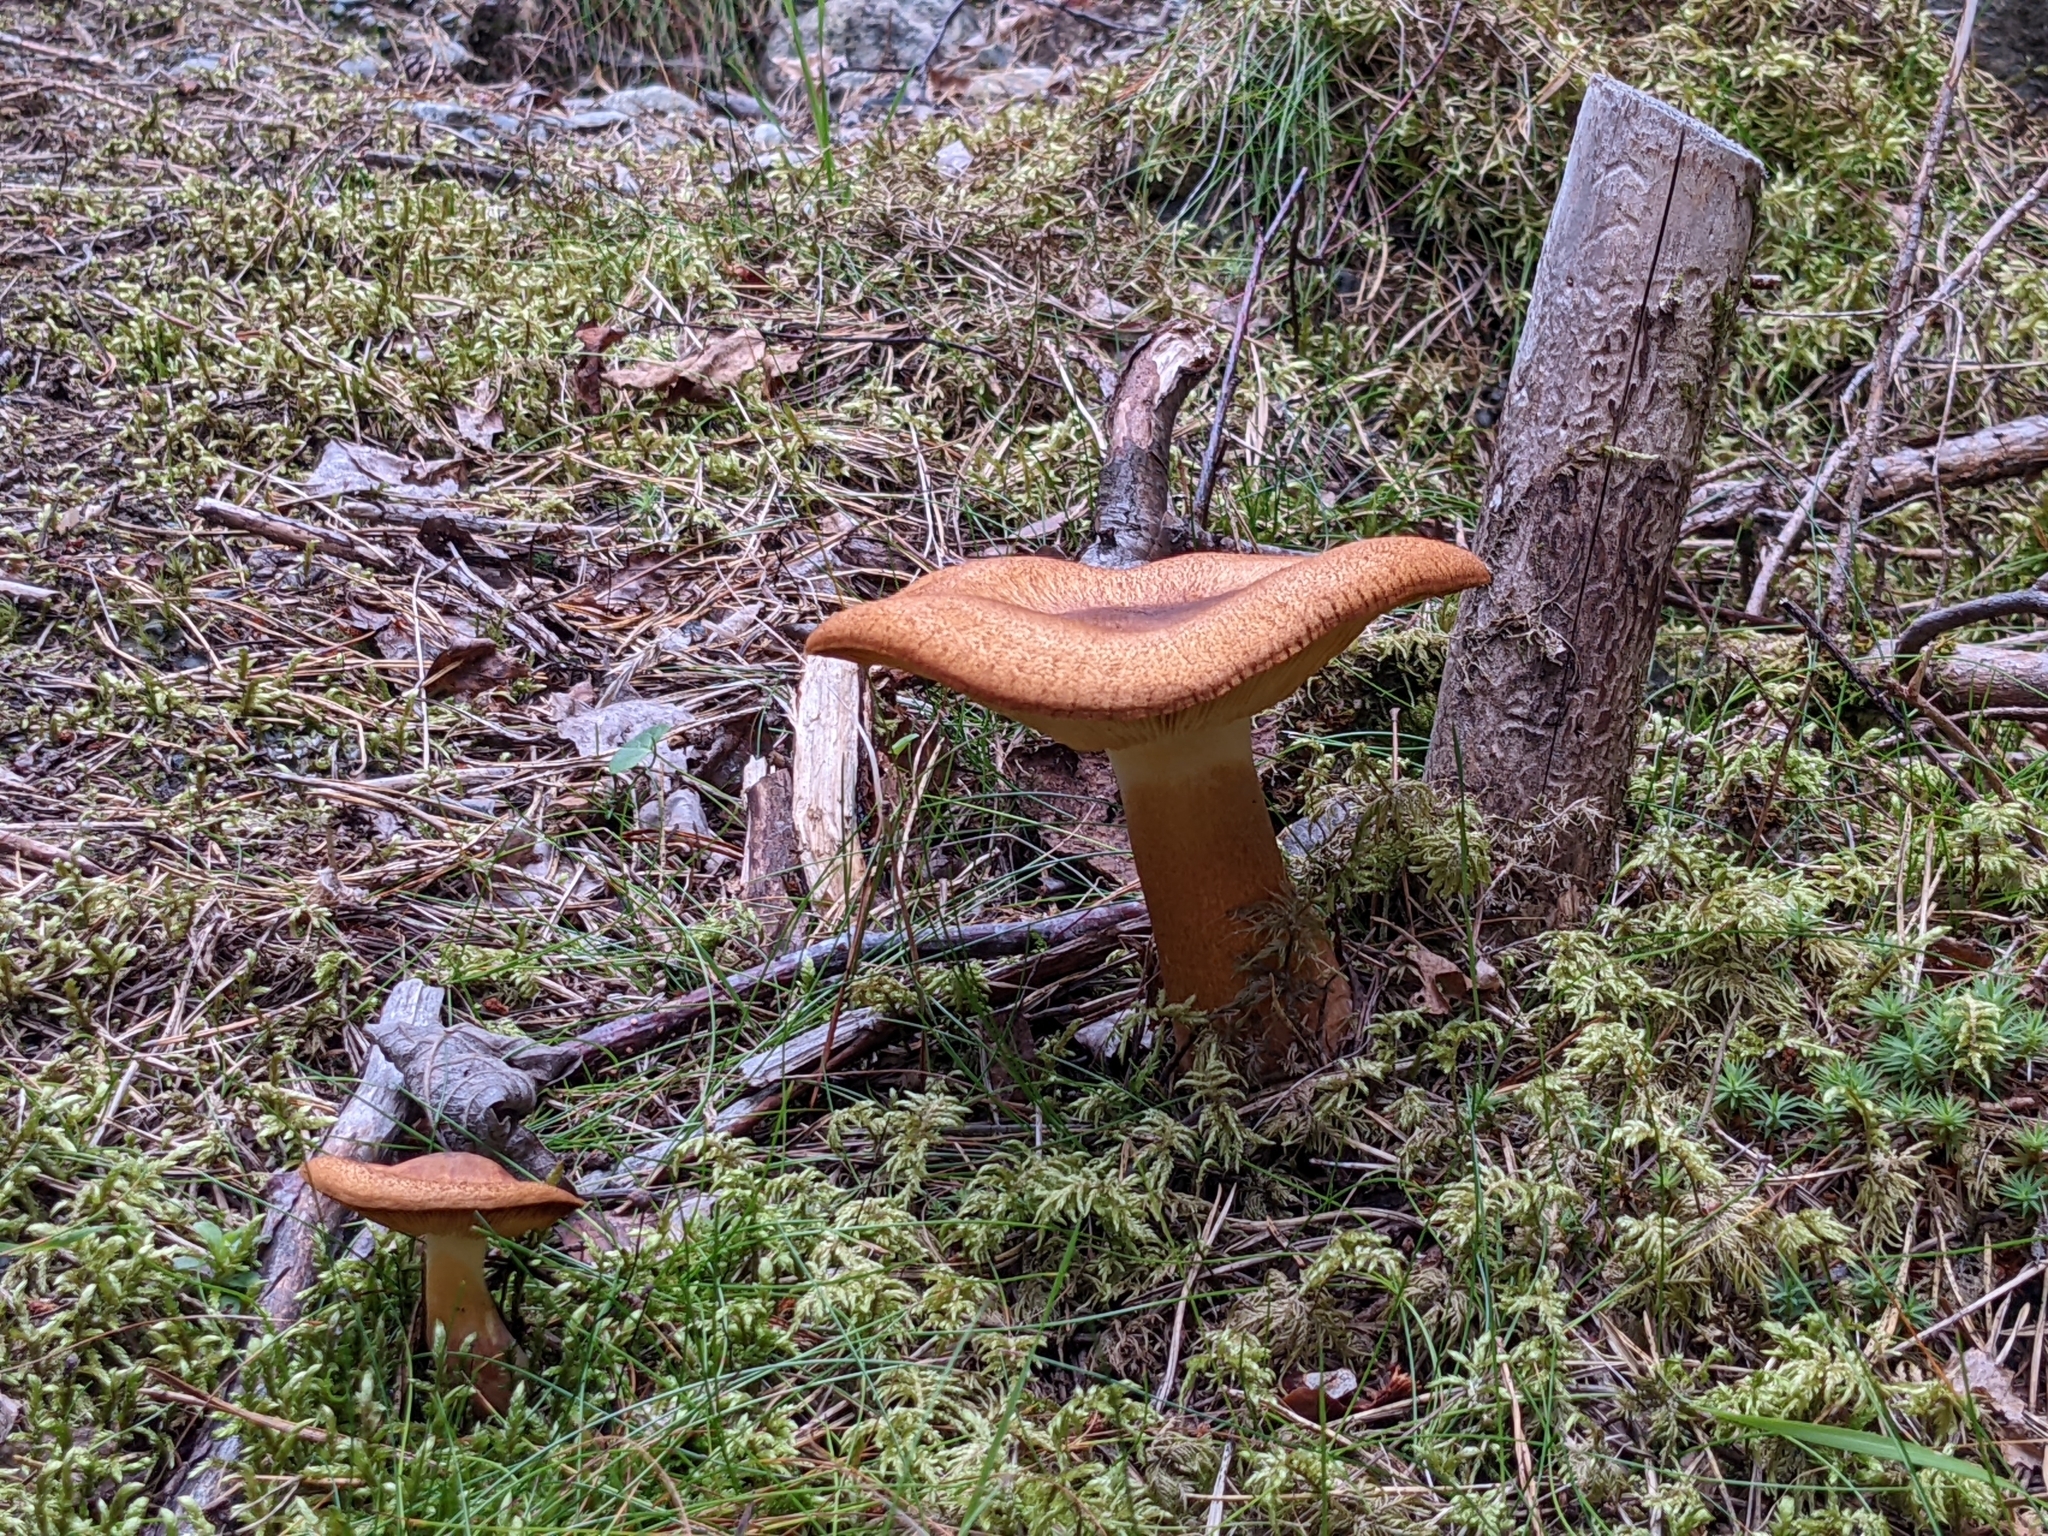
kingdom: Fungi
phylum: Basidiomycota
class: Agaricomycetes
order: Agaricales
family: Tricholomataceae
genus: Tricholomopsis
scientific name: Tricholomopsis rutilans
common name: Plums and custard
